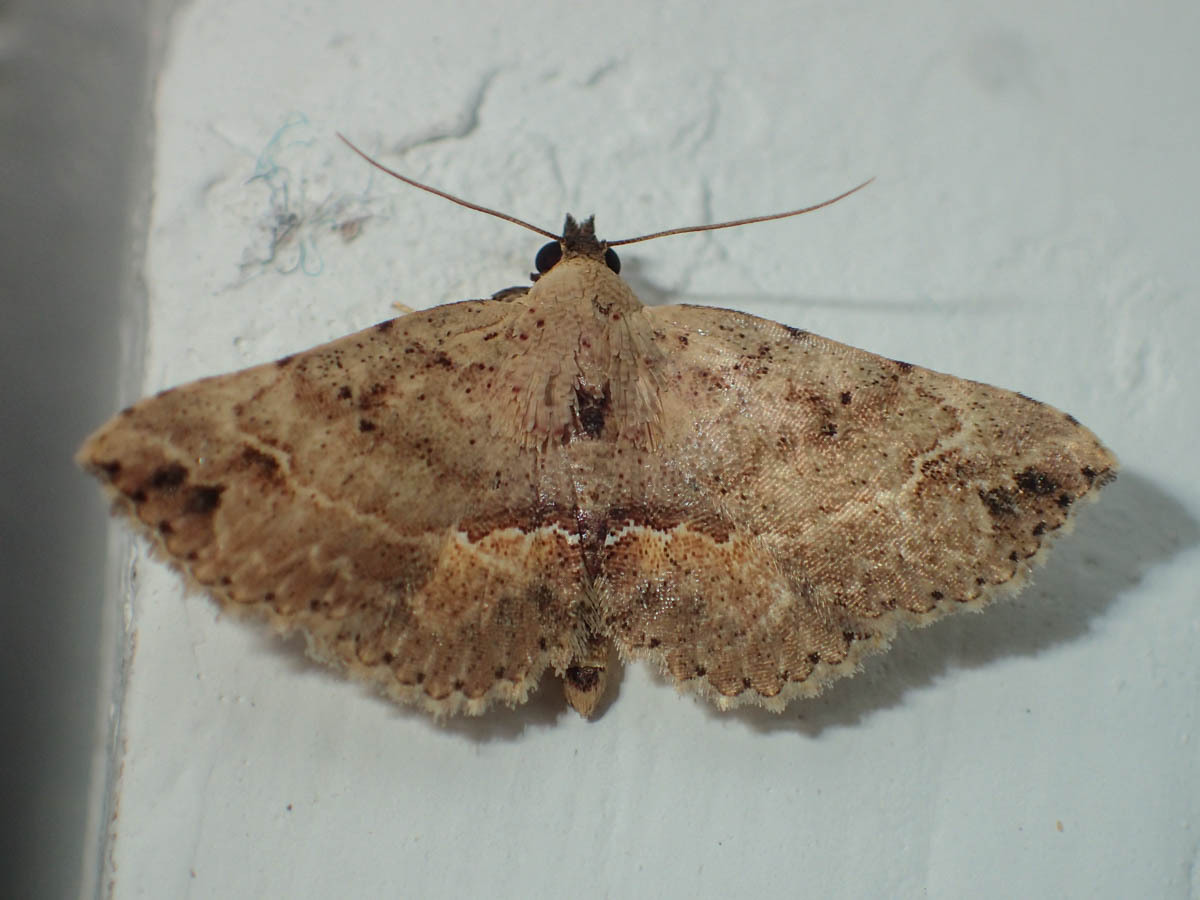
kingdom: Animalia
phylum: Arthropoda
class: Insecta
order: Lepidoptera
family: Noctuidae
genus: Cerynea
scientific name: Cerynea omphisalis
